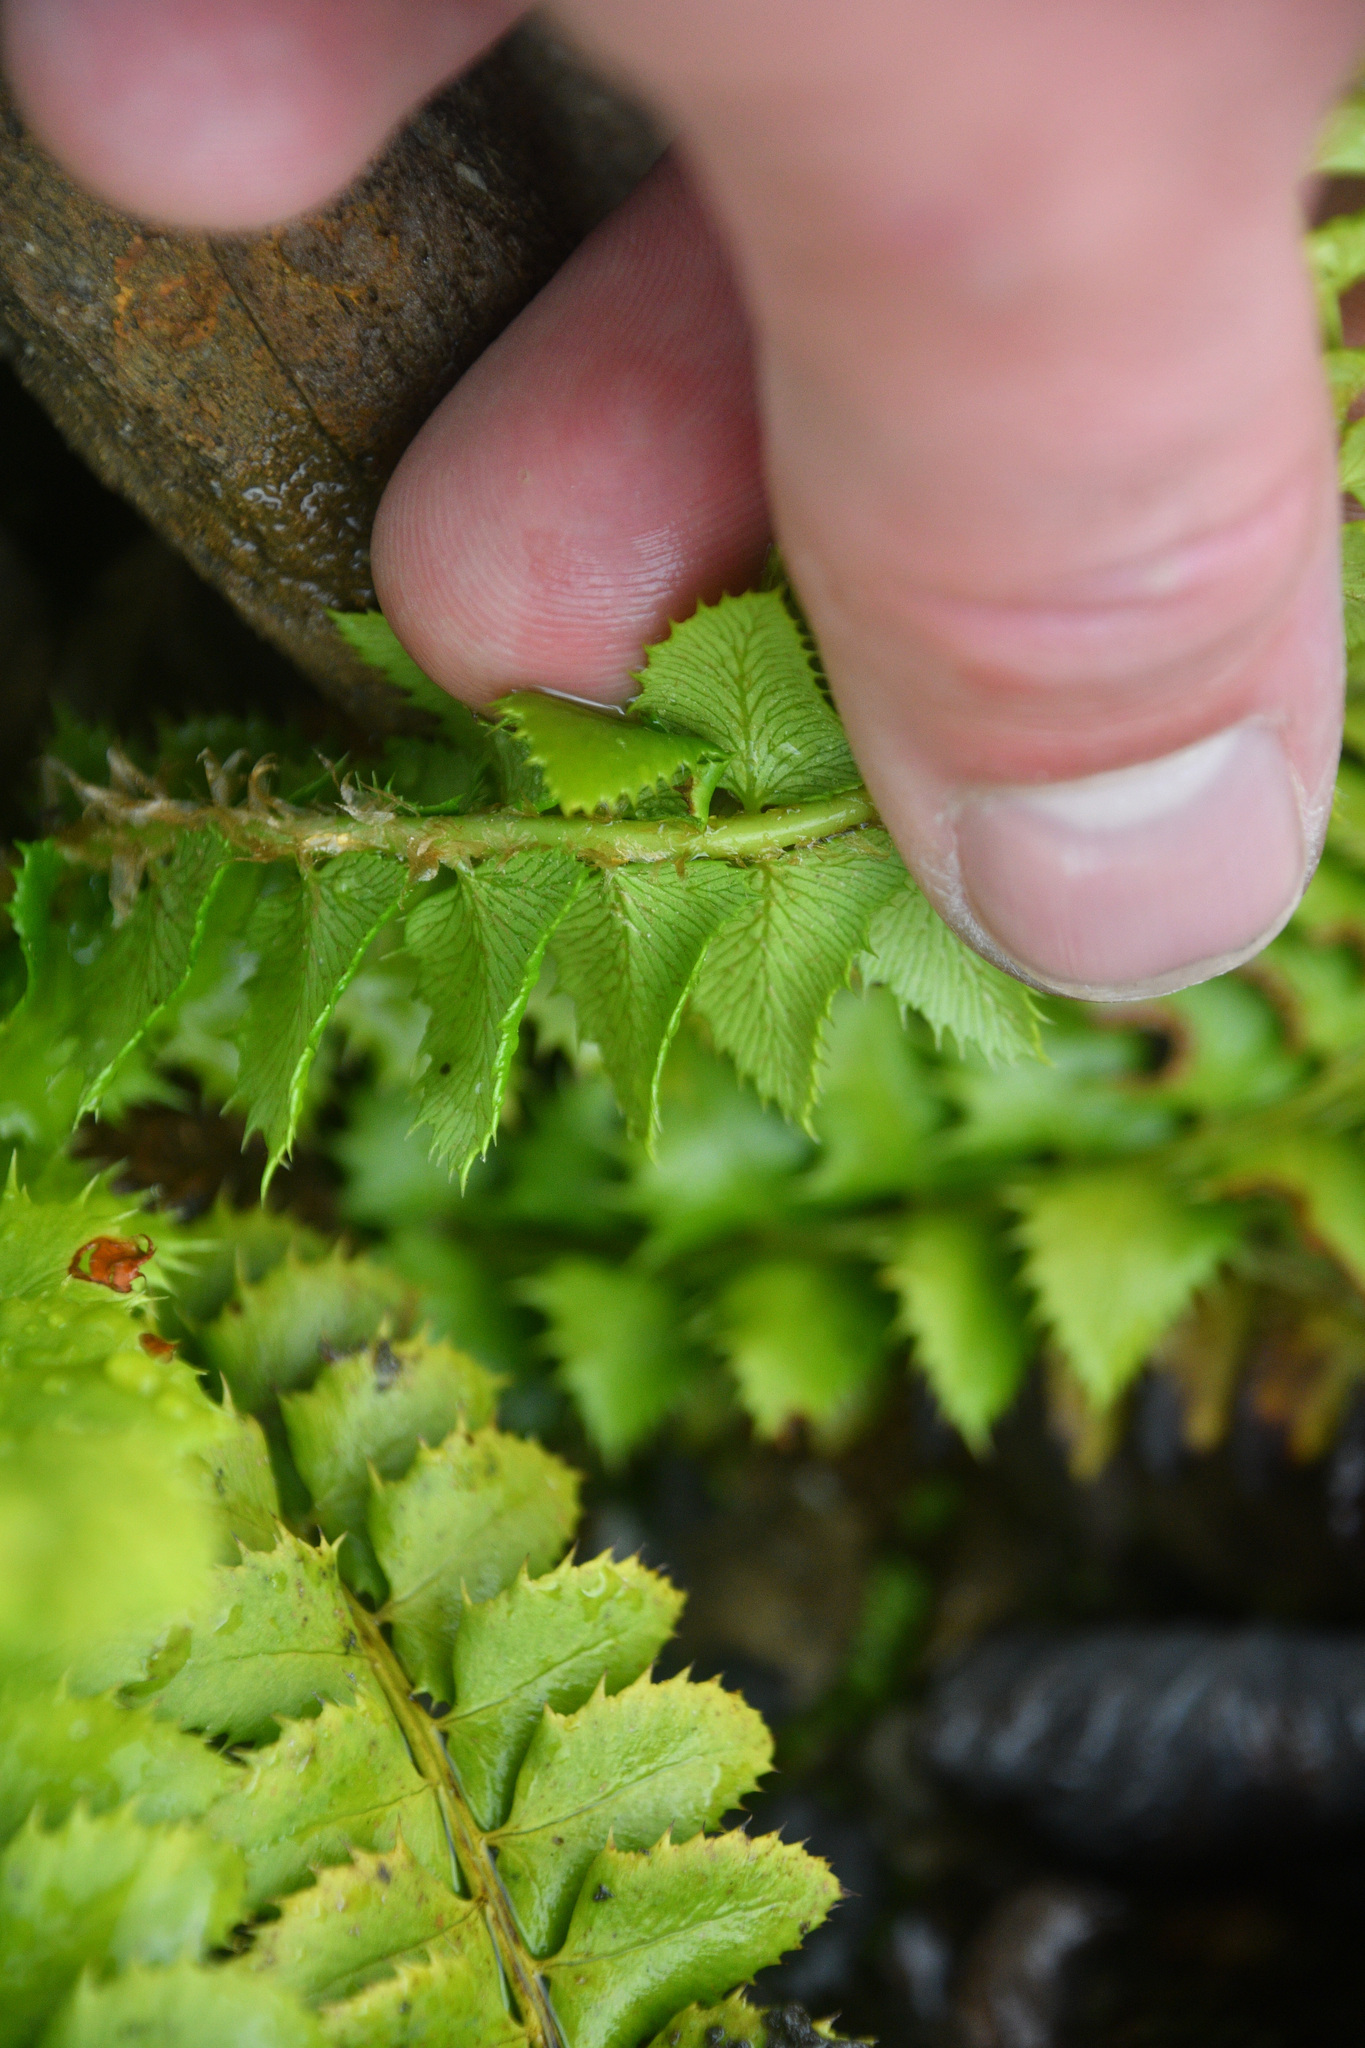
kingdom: Plantae
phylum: Tracheophyta
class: Polypodiopsida
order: Polypodiales
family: Dryopteridaceae
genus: Polystichum
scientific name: Polystichum lonchitis
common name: Holly fern
